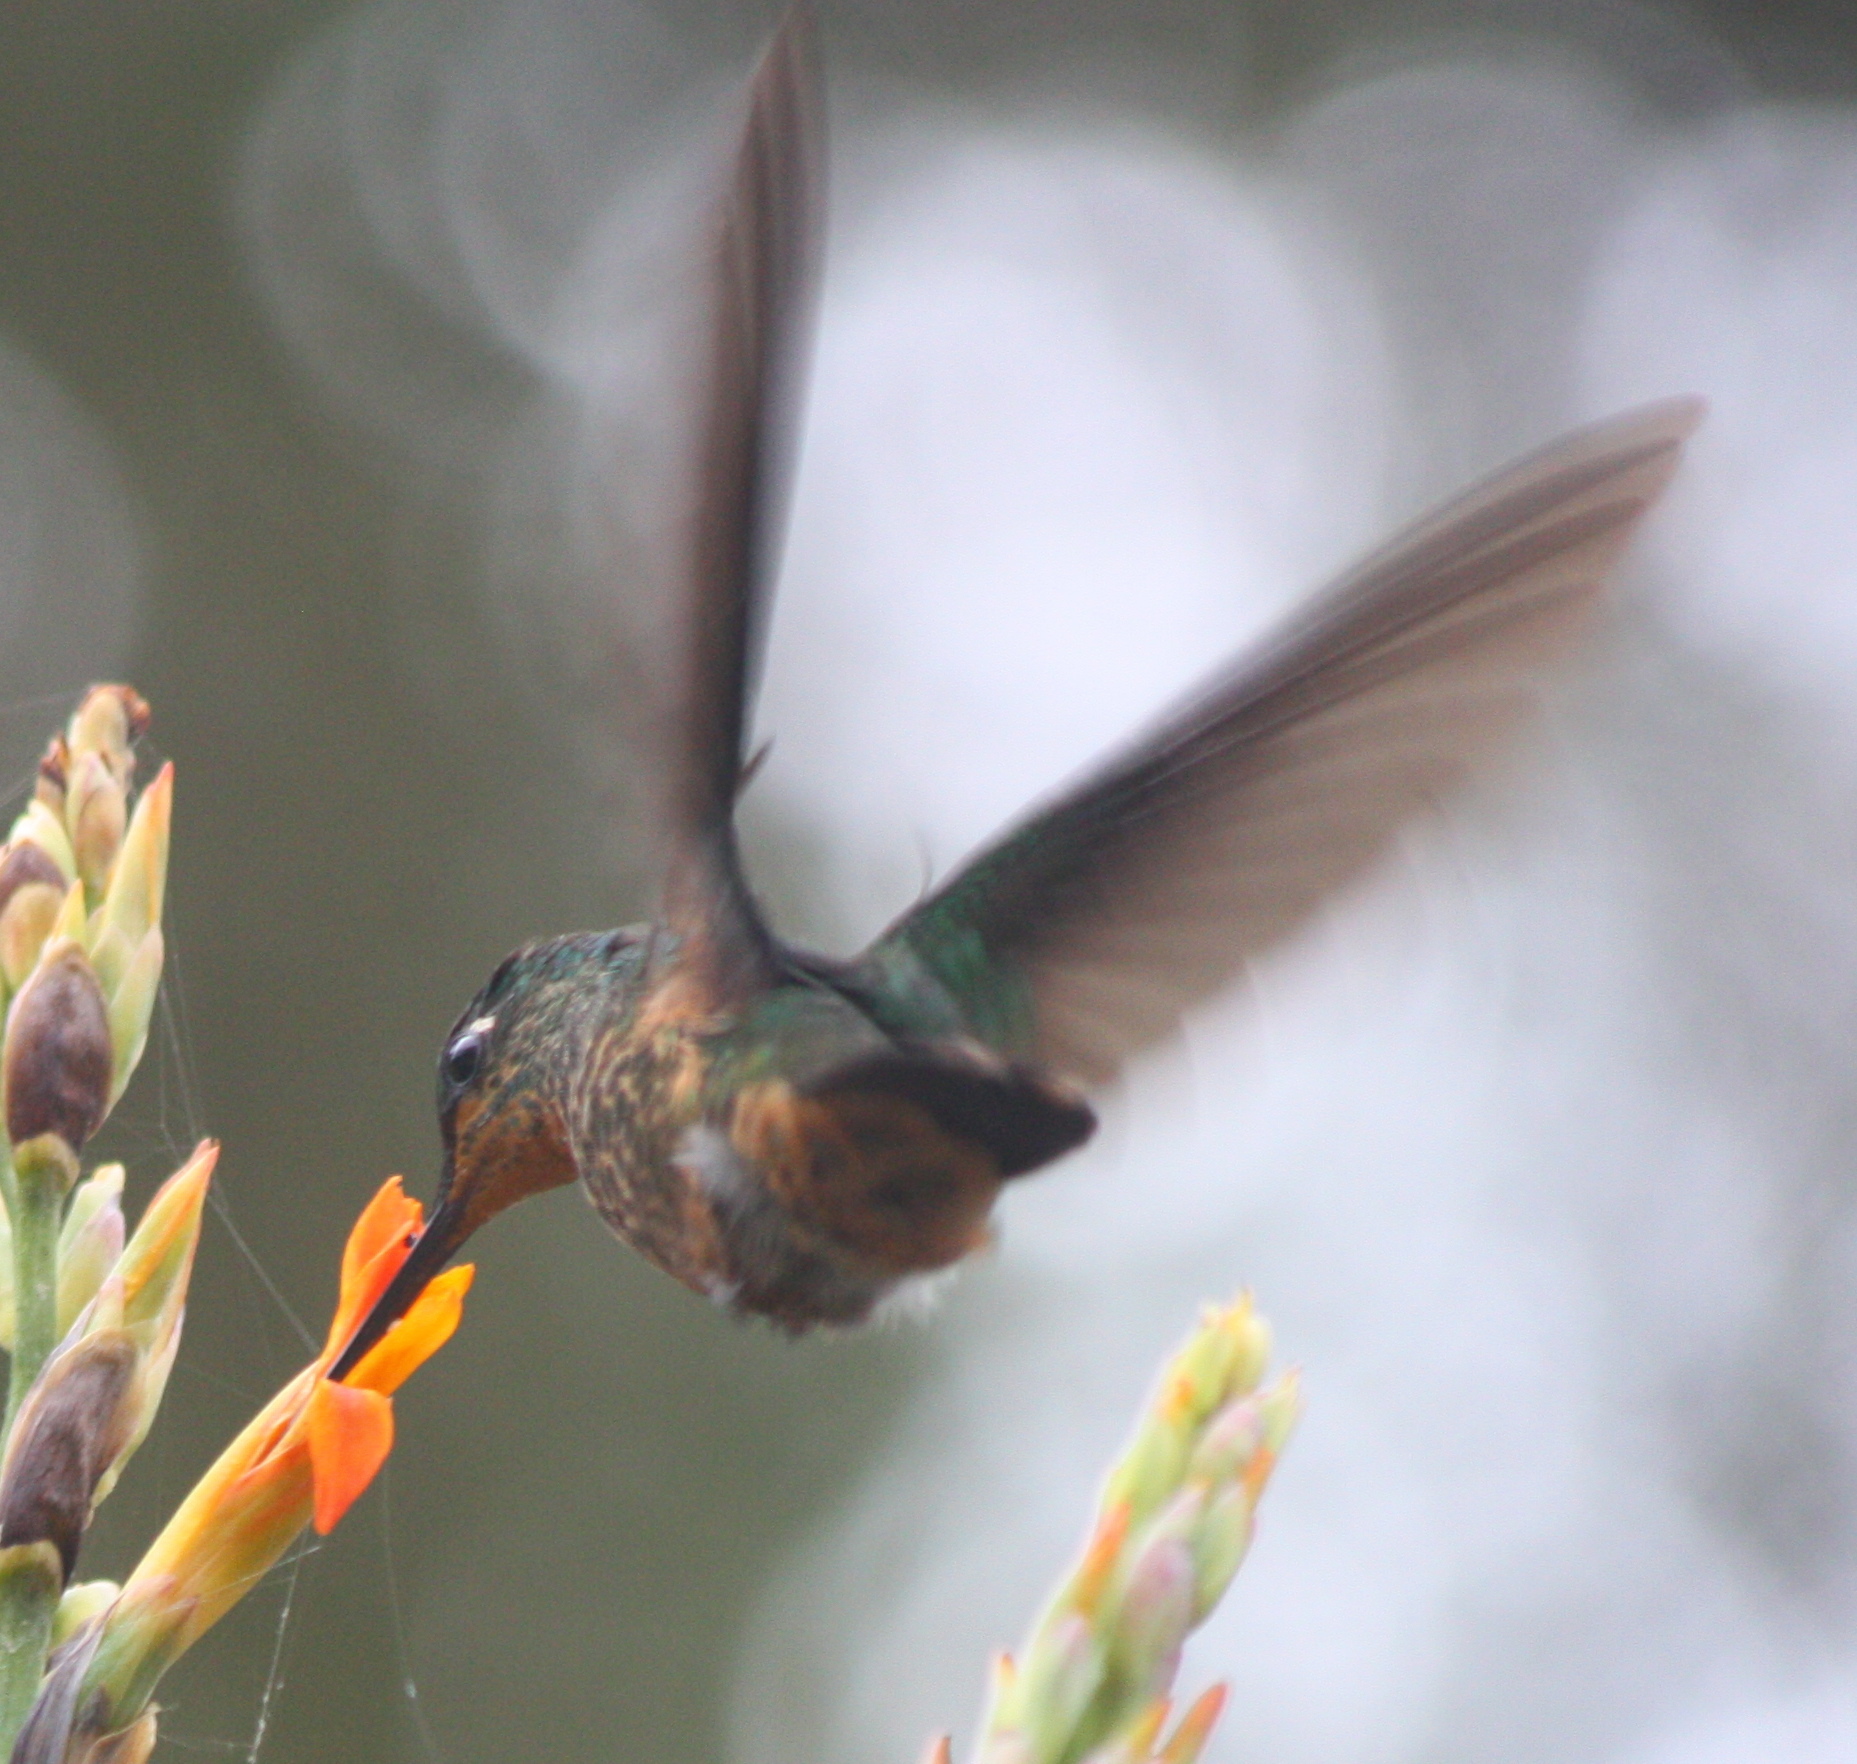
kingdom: Animalia
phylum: Chordata
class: Aves
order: Apodiformes
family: Trochilidae
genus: Coeligena
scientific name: Coeligena bonapartei
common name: Golden-bellied starfrontlet
